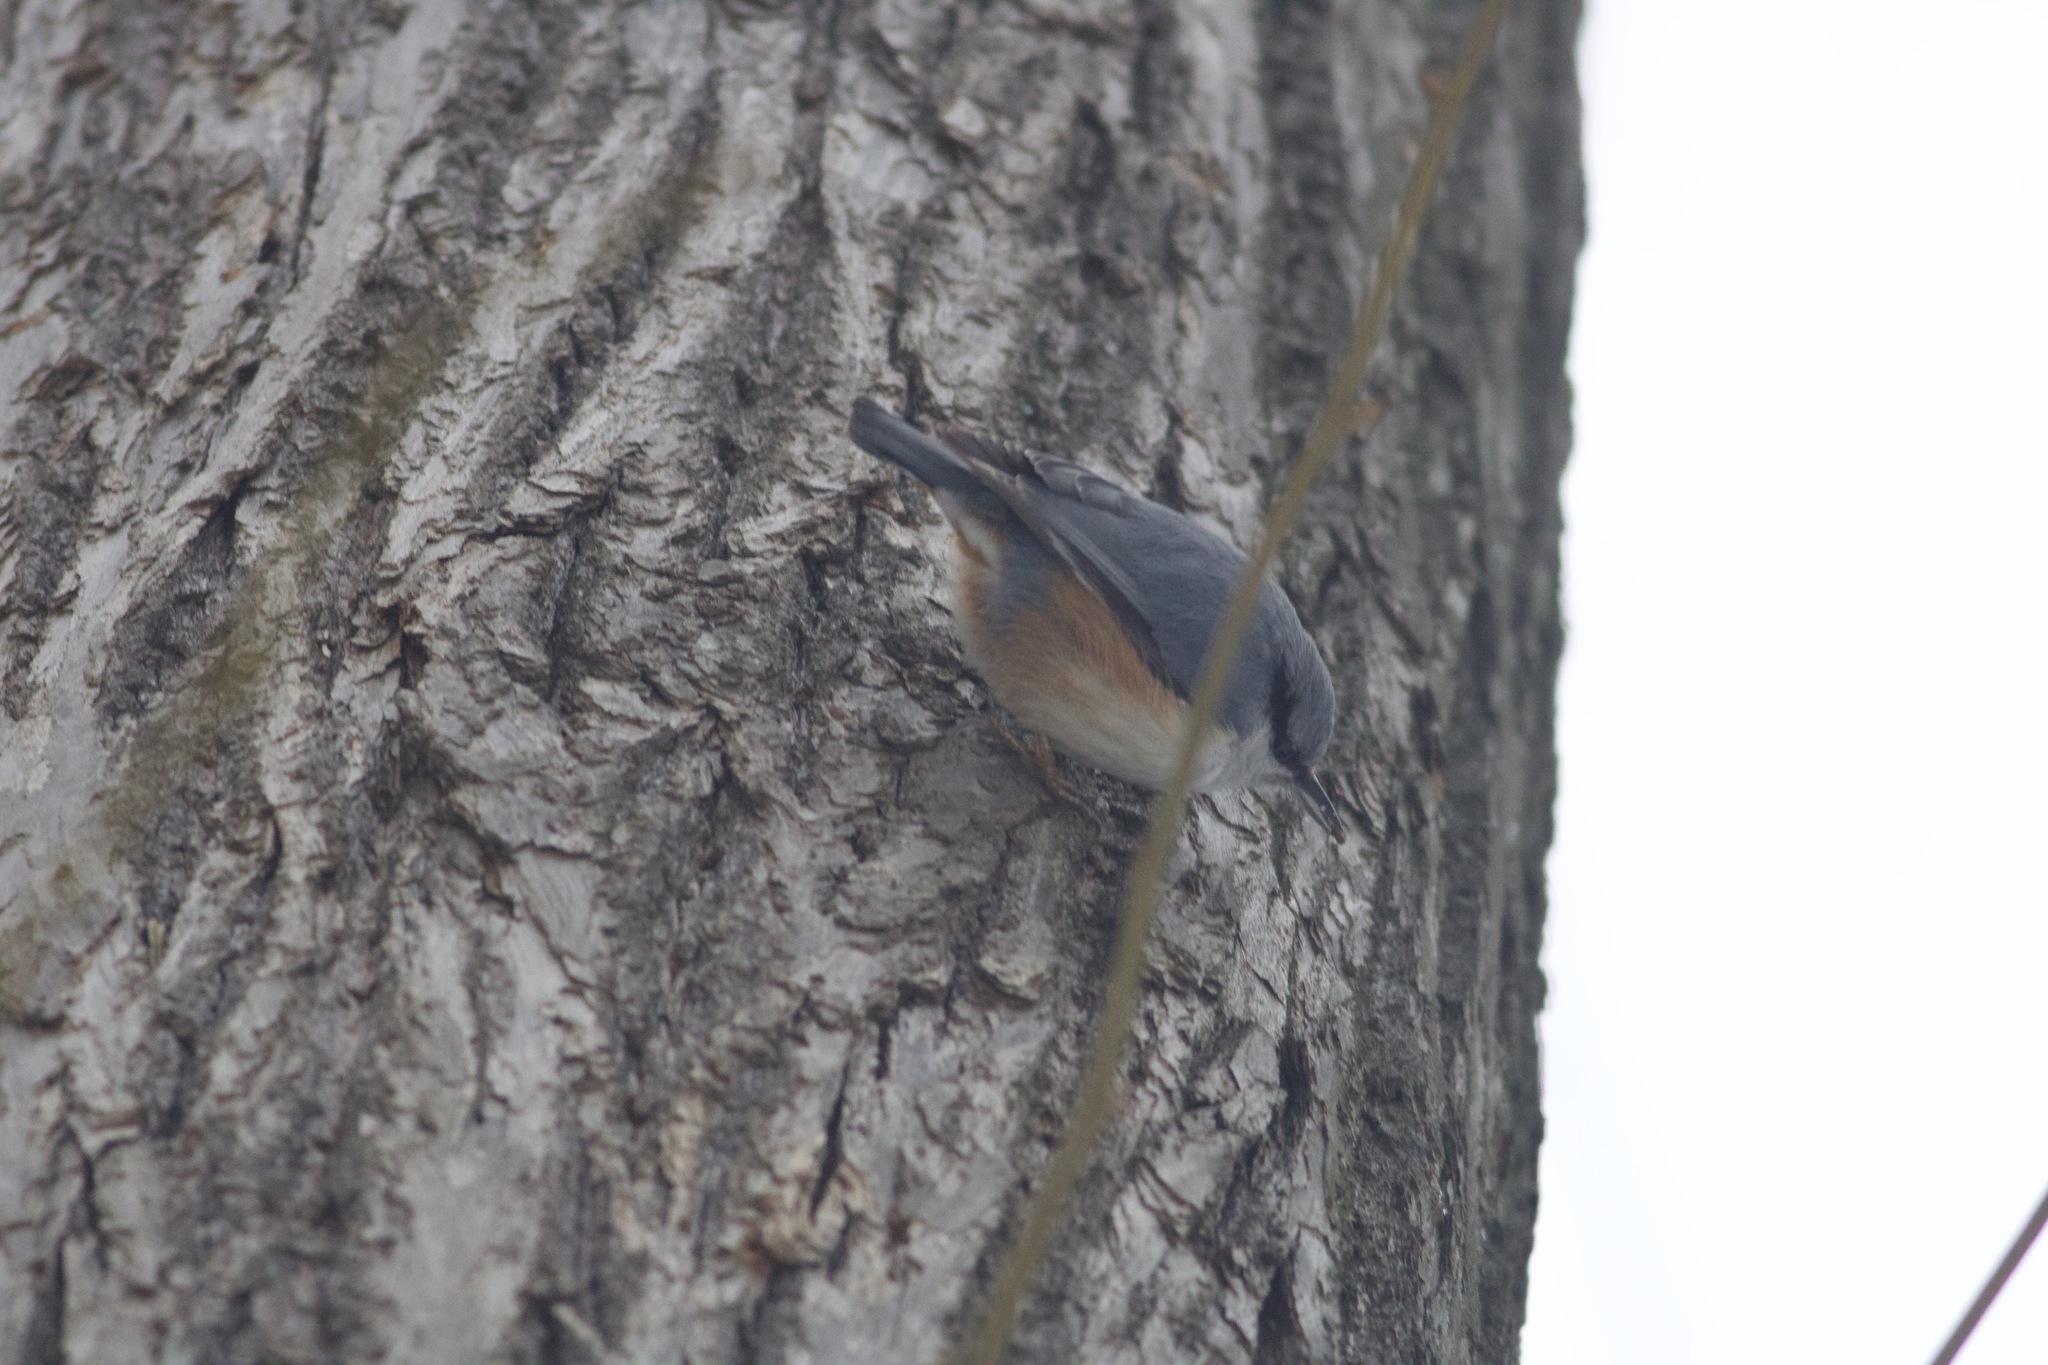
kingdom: Animalia
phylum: Chordata
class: Aves
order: Passeriformes
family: Sittidae
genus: Sitta
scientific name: Sitta europaea
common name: Eurasian nuthatch
